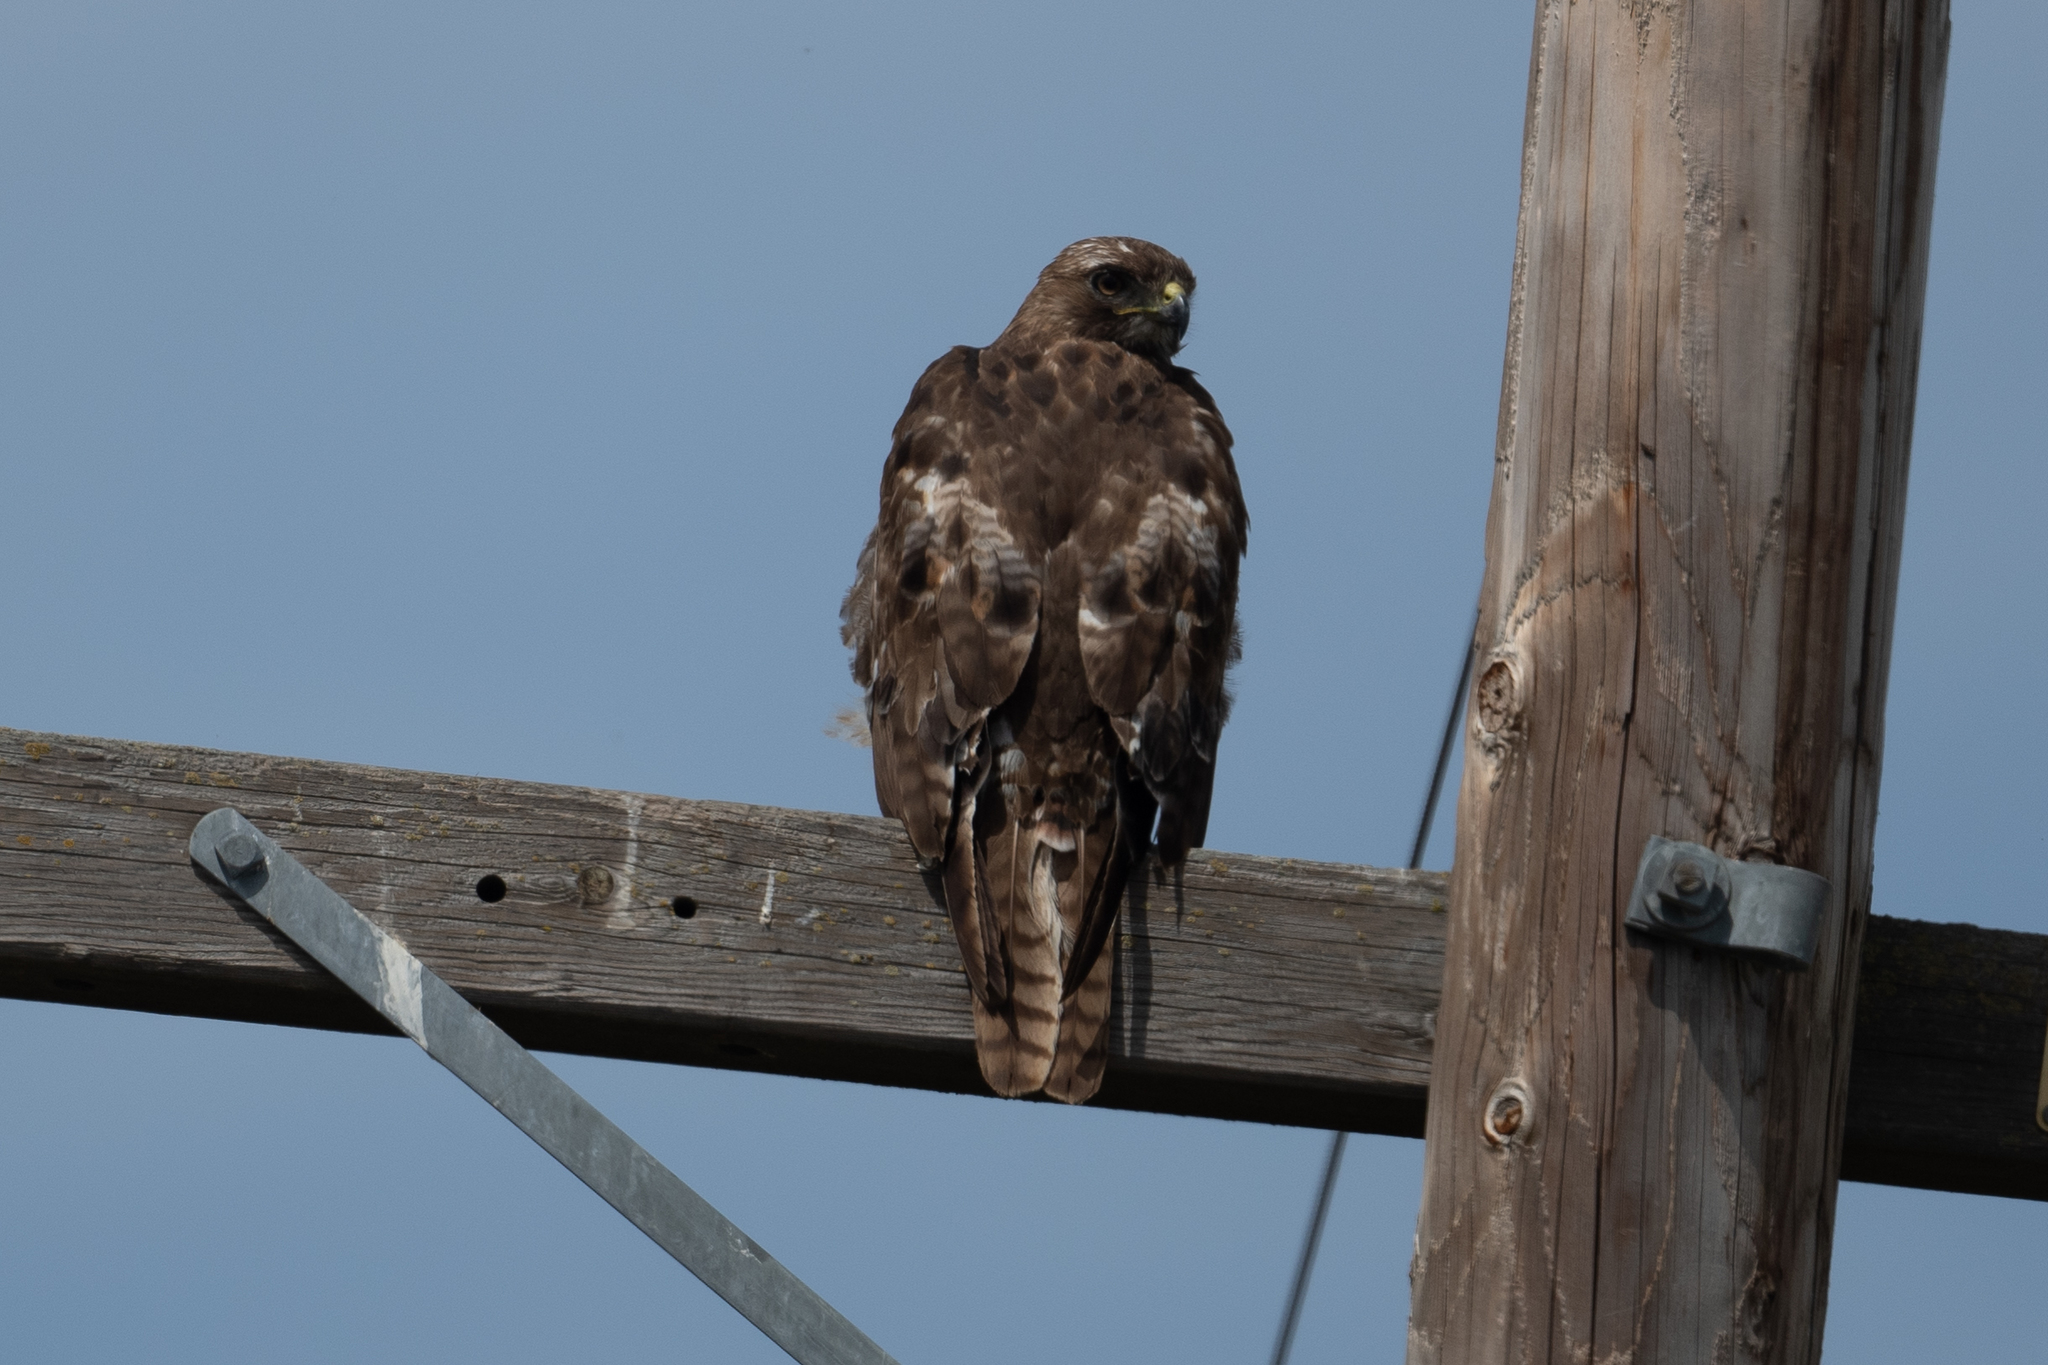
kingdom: Animalia
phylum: Chordata
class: Aves
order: Accipitriformes
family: Accipitridae
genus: Buteo
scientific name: Buteo jamaicensis
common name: Red-tailed hawk
